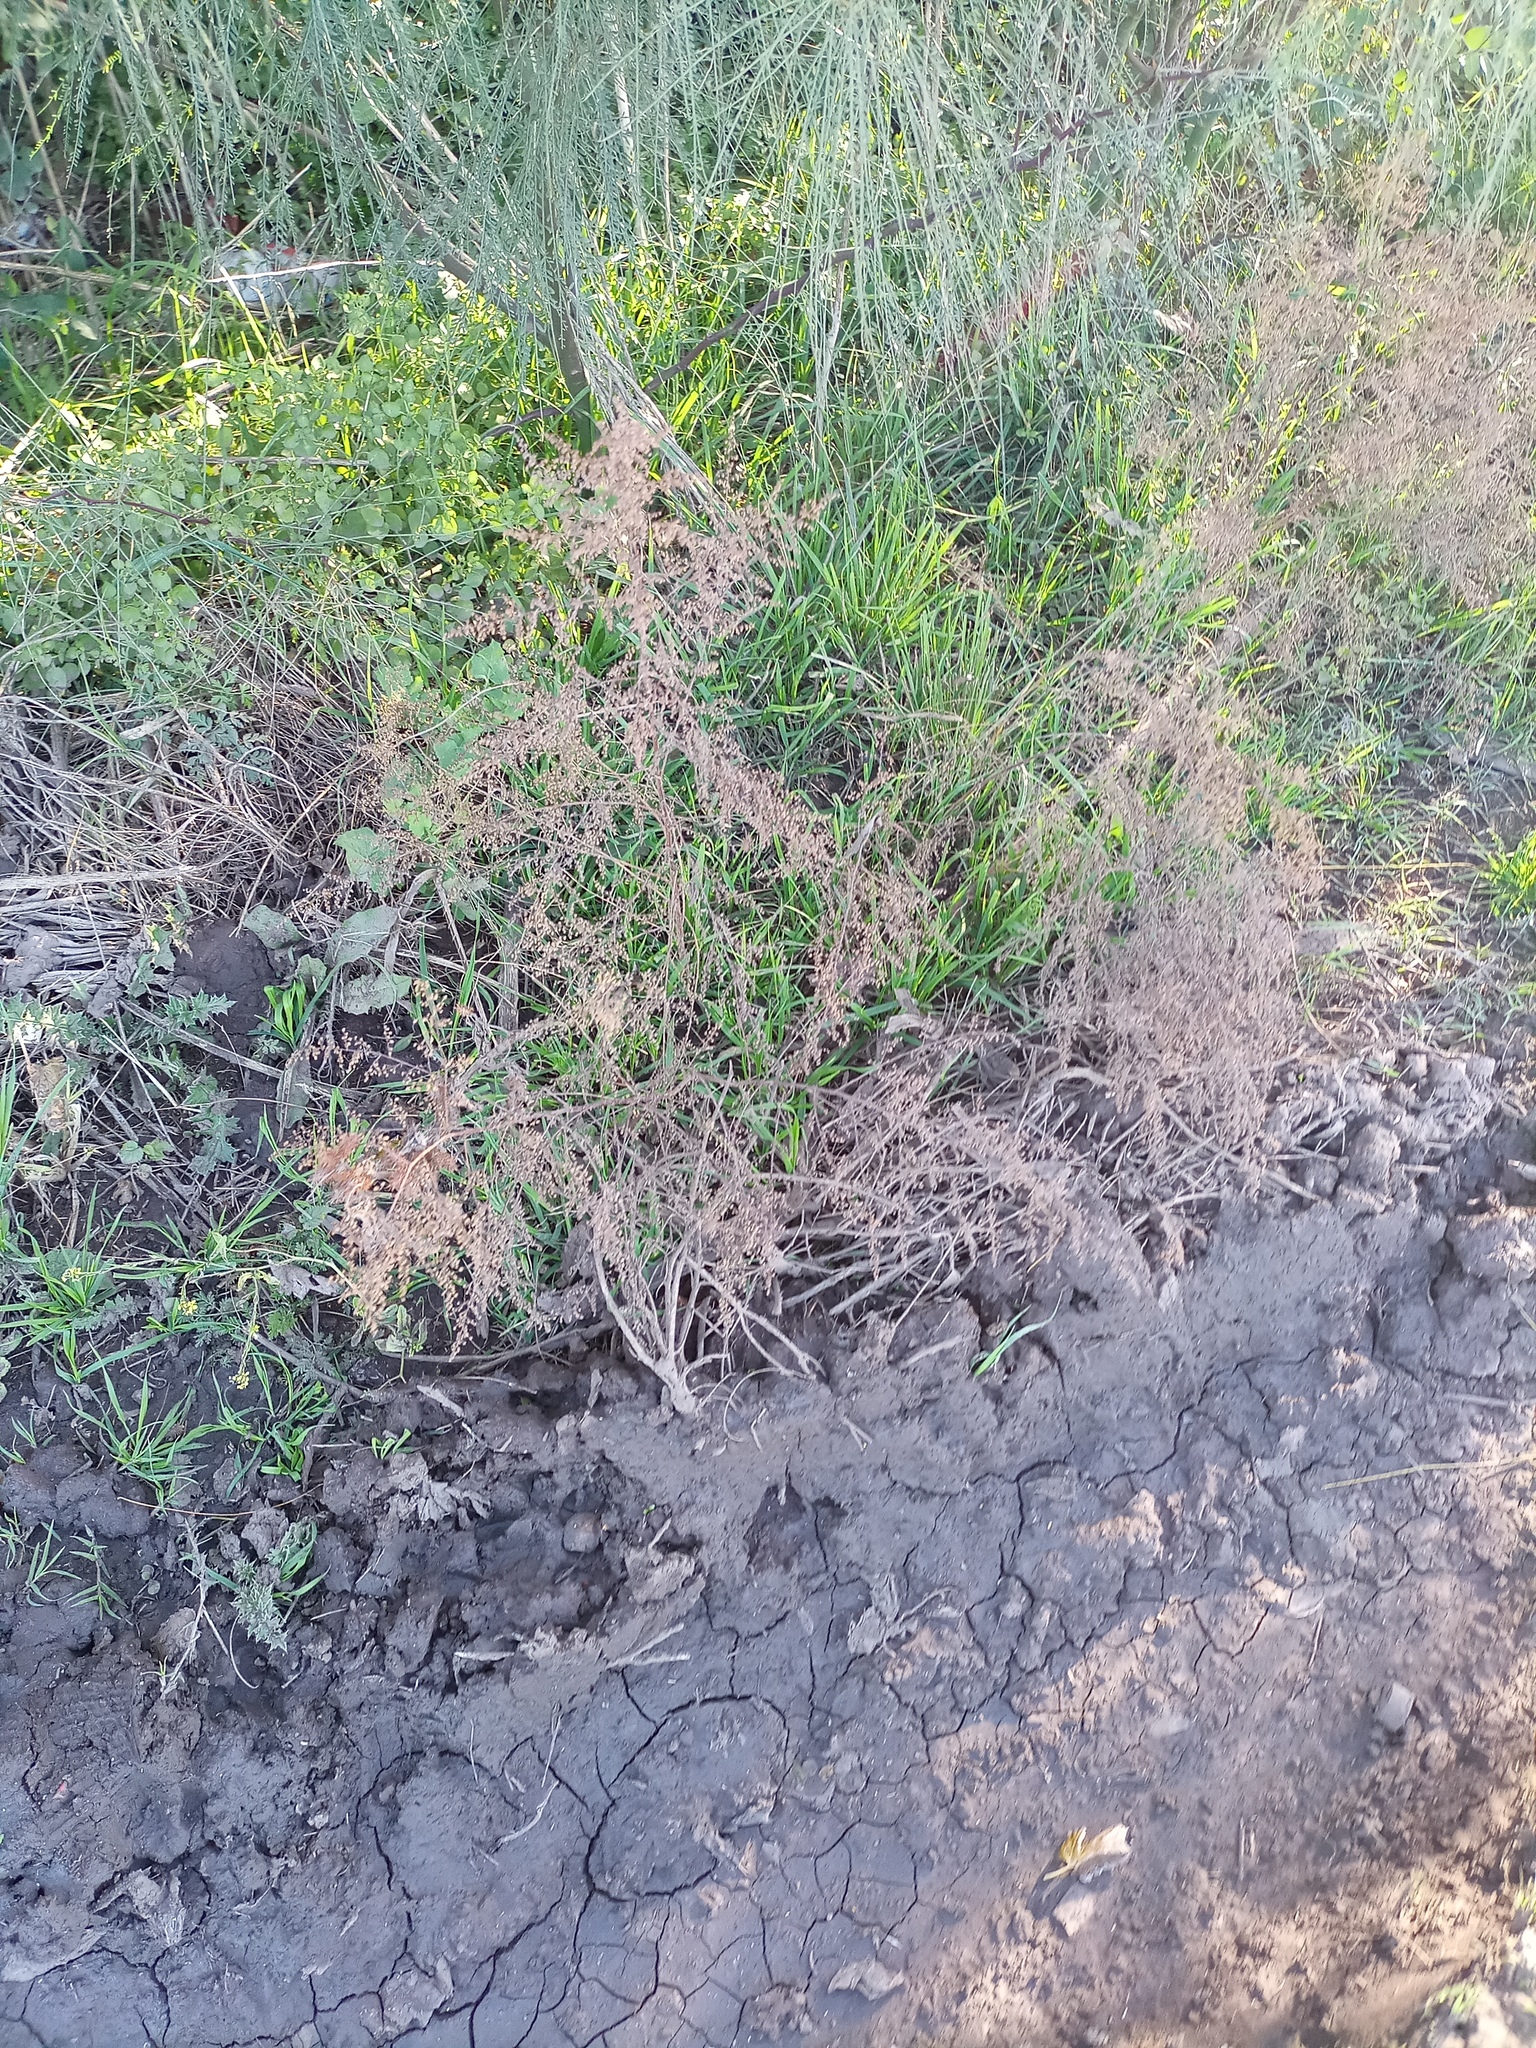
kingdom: Plantae
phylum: Tracheophyta
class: Magnoliopsida
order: Asterales
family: Asteraceae
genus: Artemisia
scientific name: Artemisia annua
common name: Sweet sagewort
